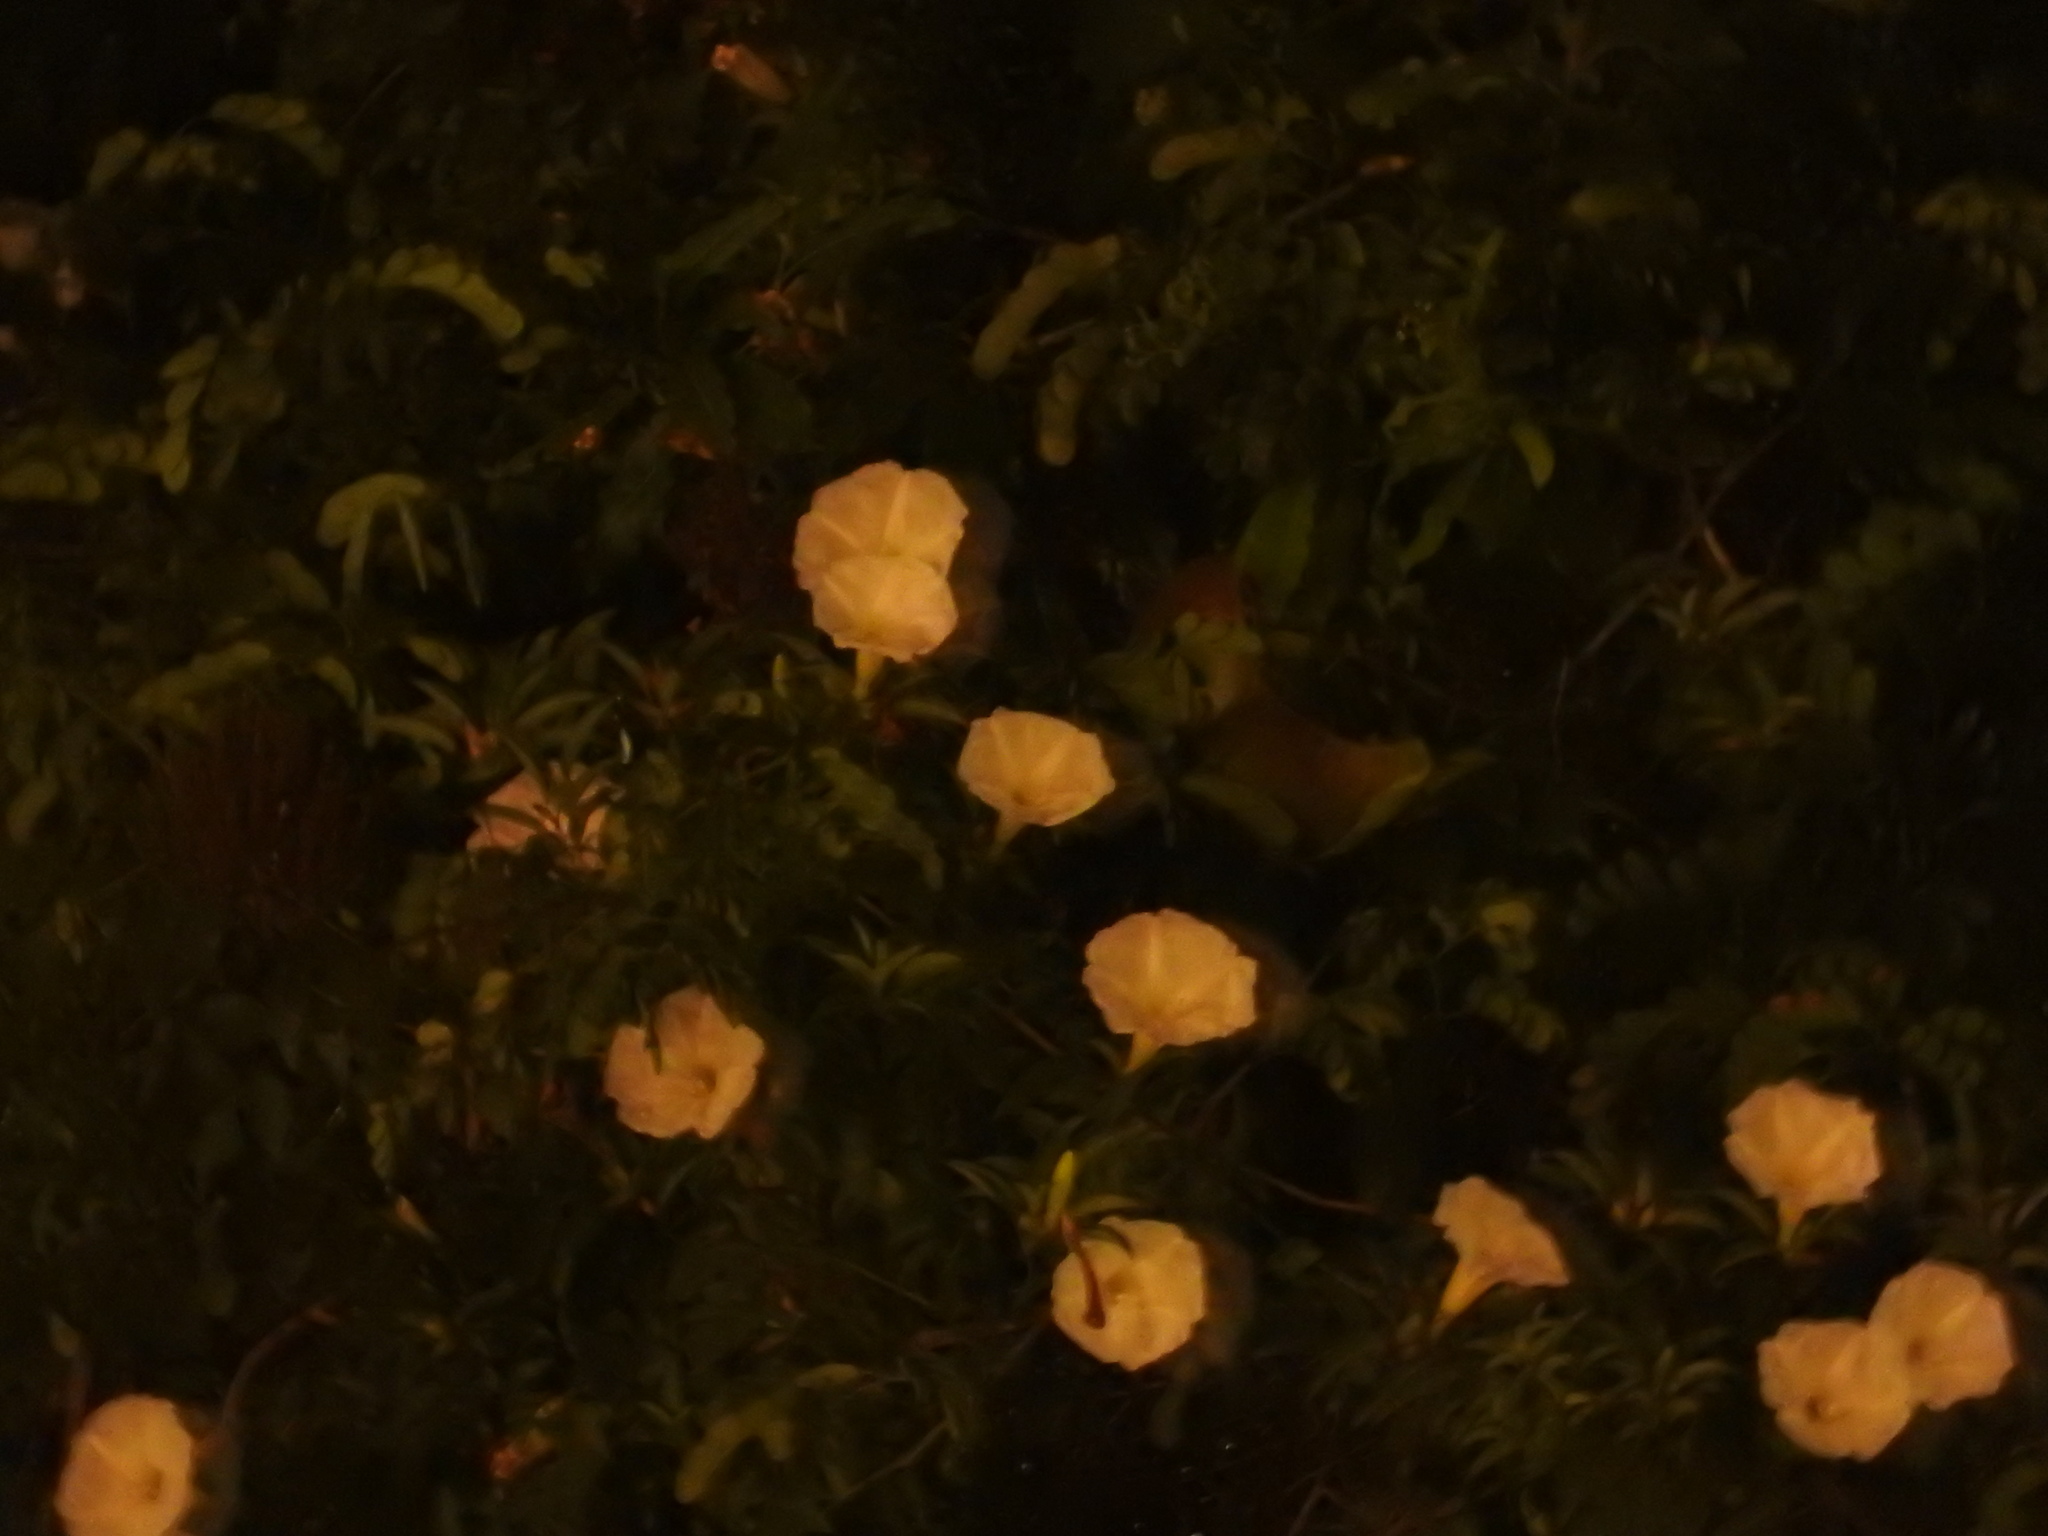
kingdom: Plantae
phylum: Tracheophyta
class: Magnoliopsida
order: Solanales
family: Convolvulaceae
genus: Ipomoea
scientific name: Ipomoea robinsonii
